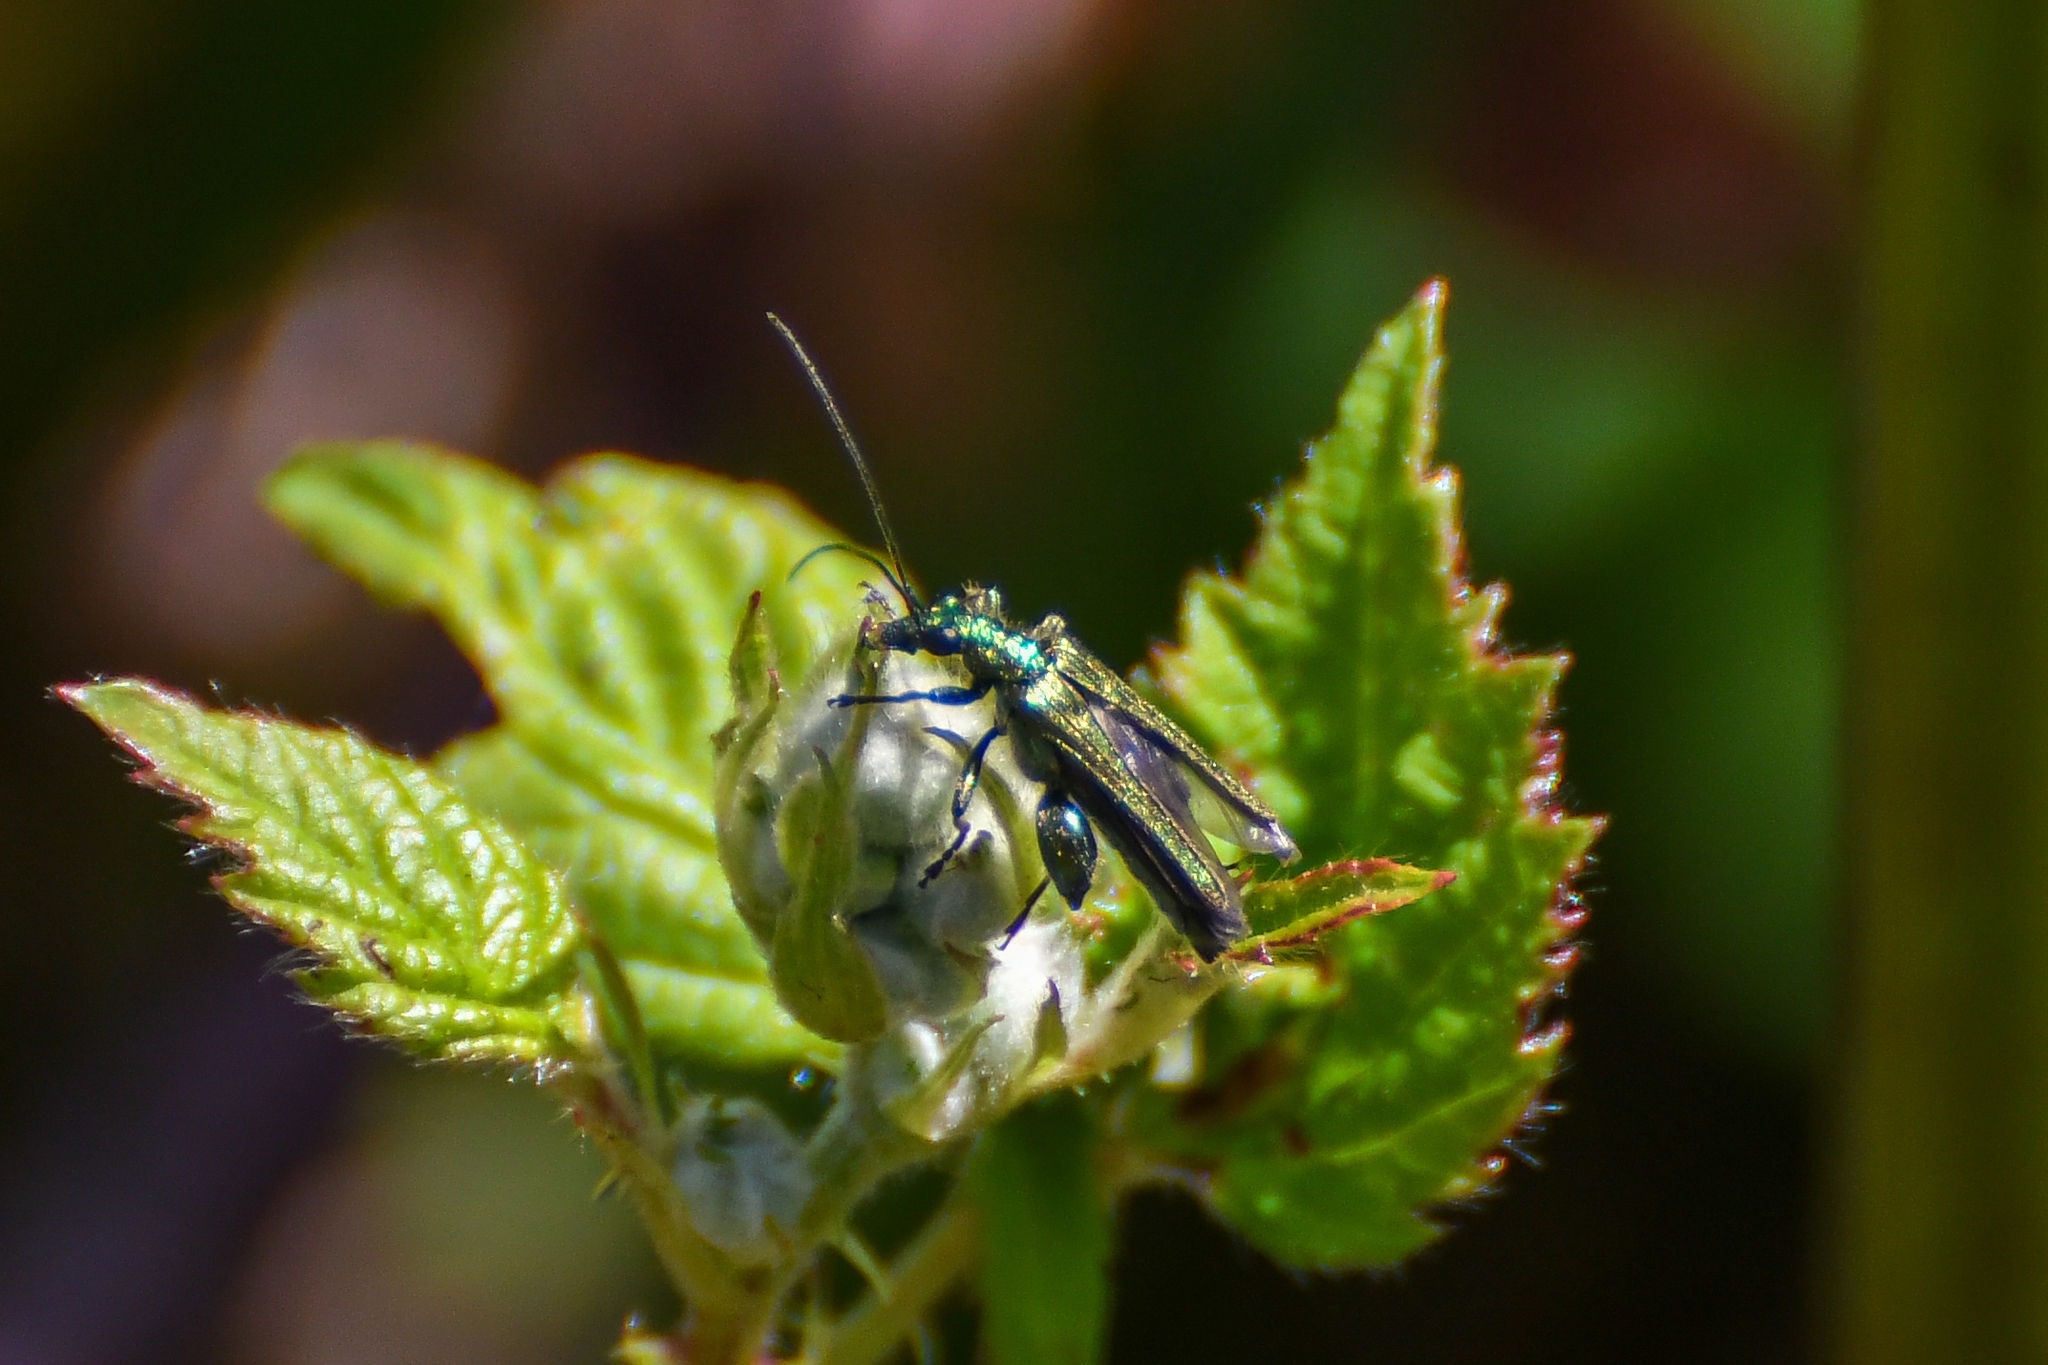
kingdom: Animalia
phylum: Arthropoda
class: Insecta
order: Coleoptera
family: Oedemeridae
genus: Oedemera
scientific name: Oedemera nobilis
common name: Swollen-thighed beetle
